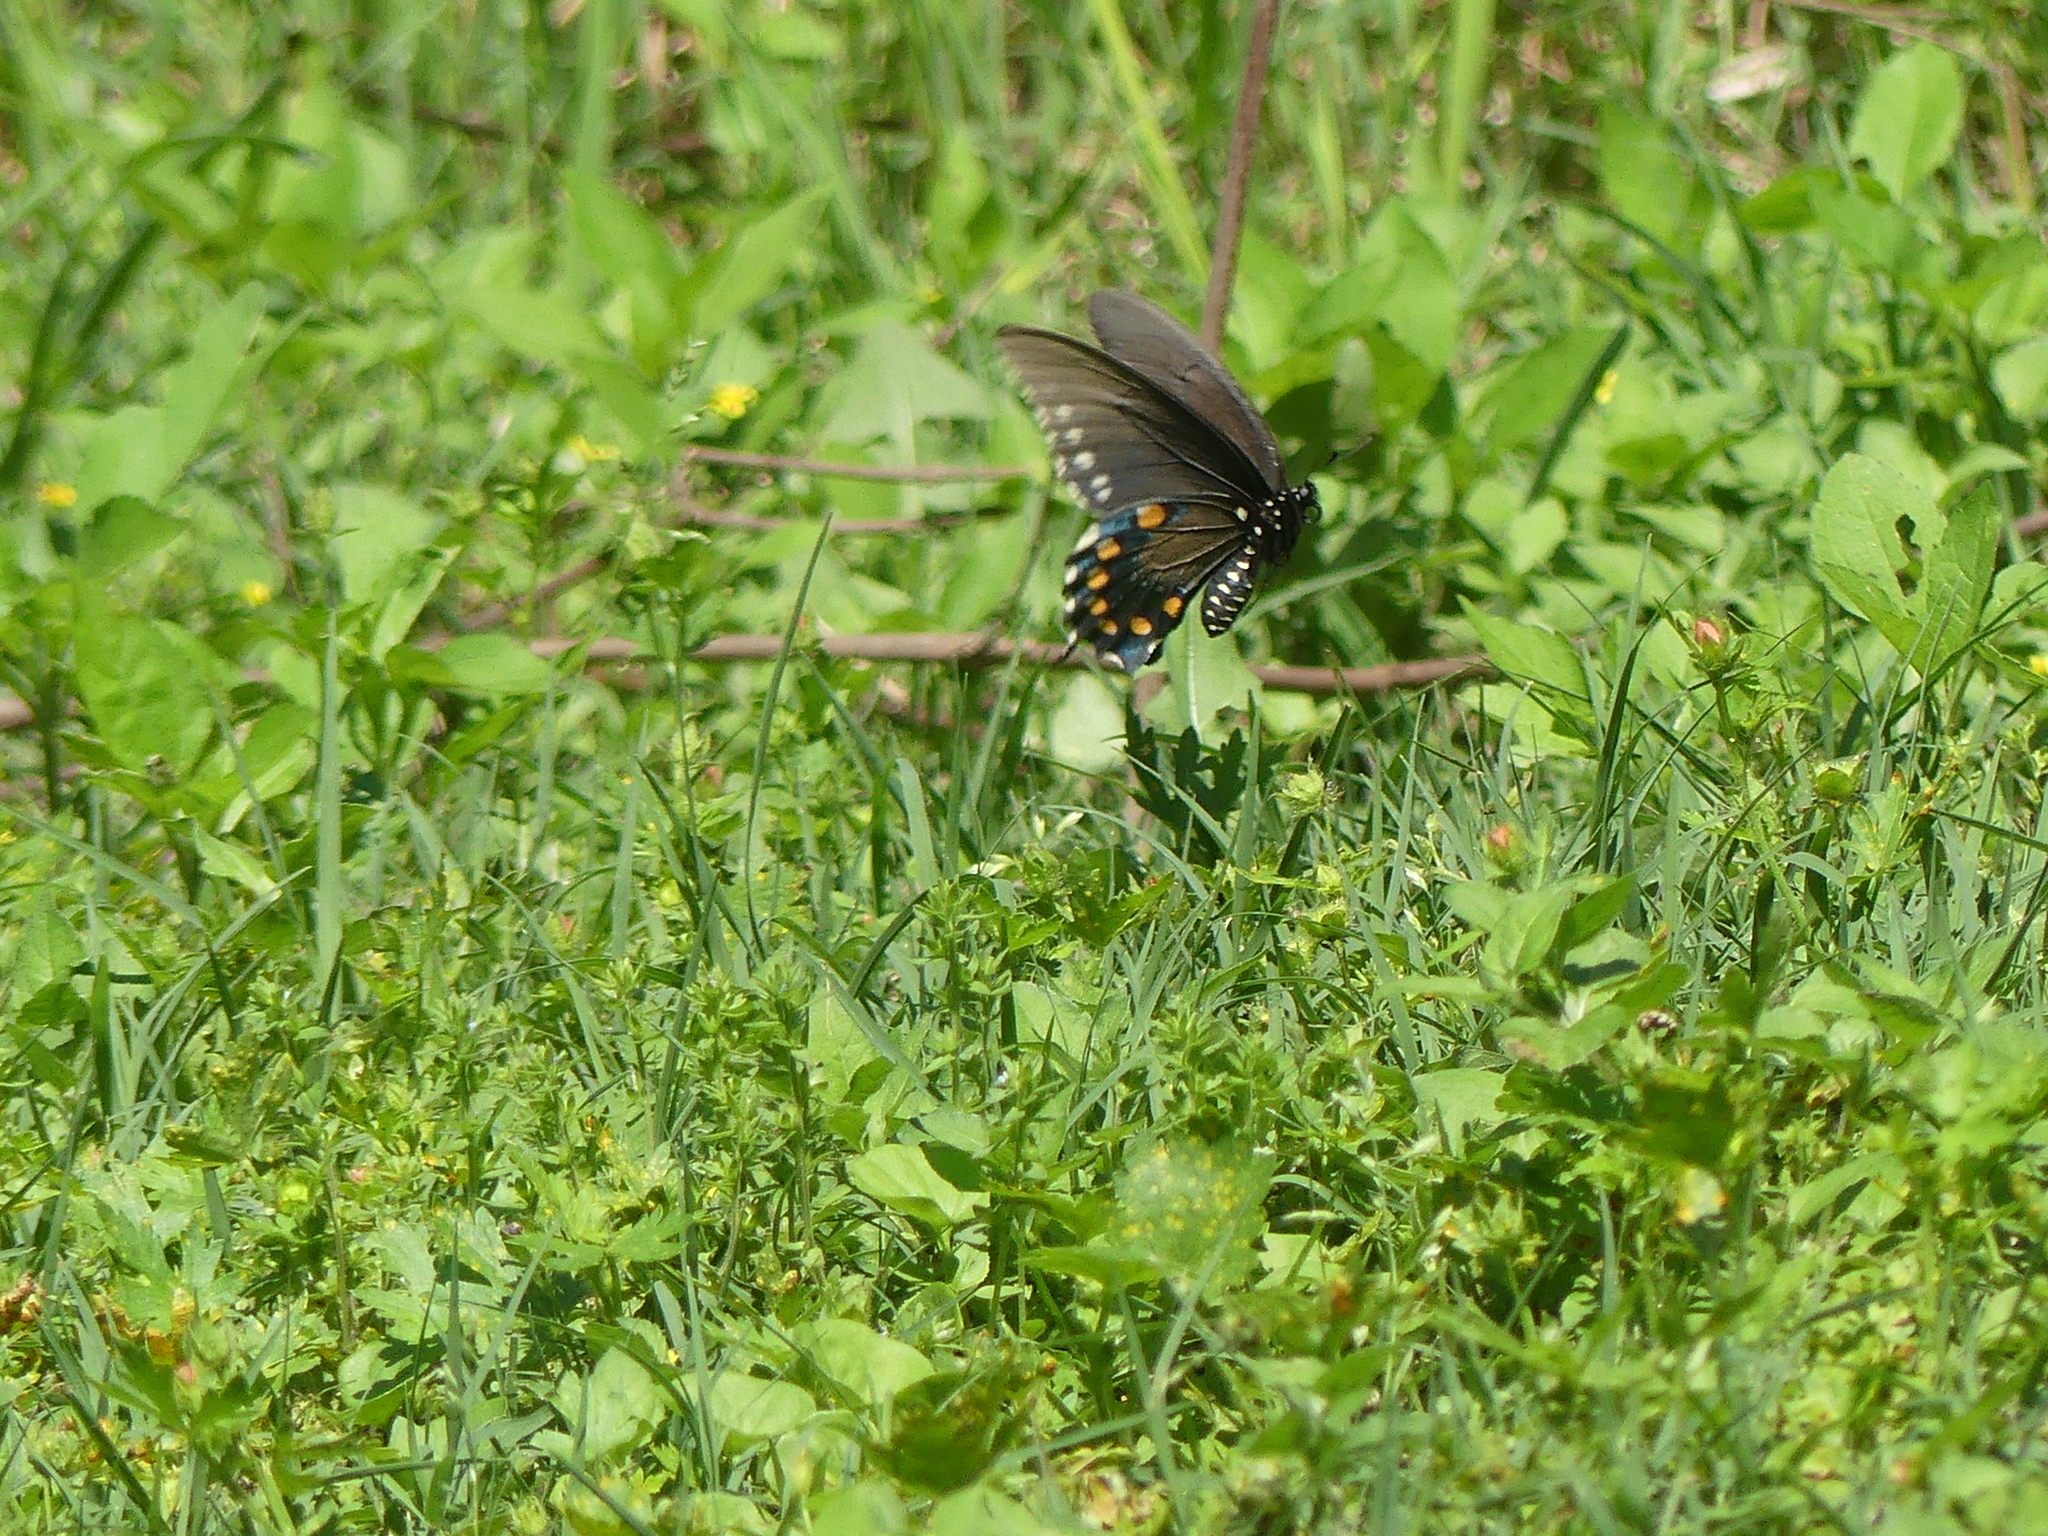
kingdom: Animalia
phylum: Arthropoda
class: Insecta
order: Lepidoptera
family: Papilionidae
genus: Battus
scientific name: Battus philenor
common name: Pipevine swallowtail
